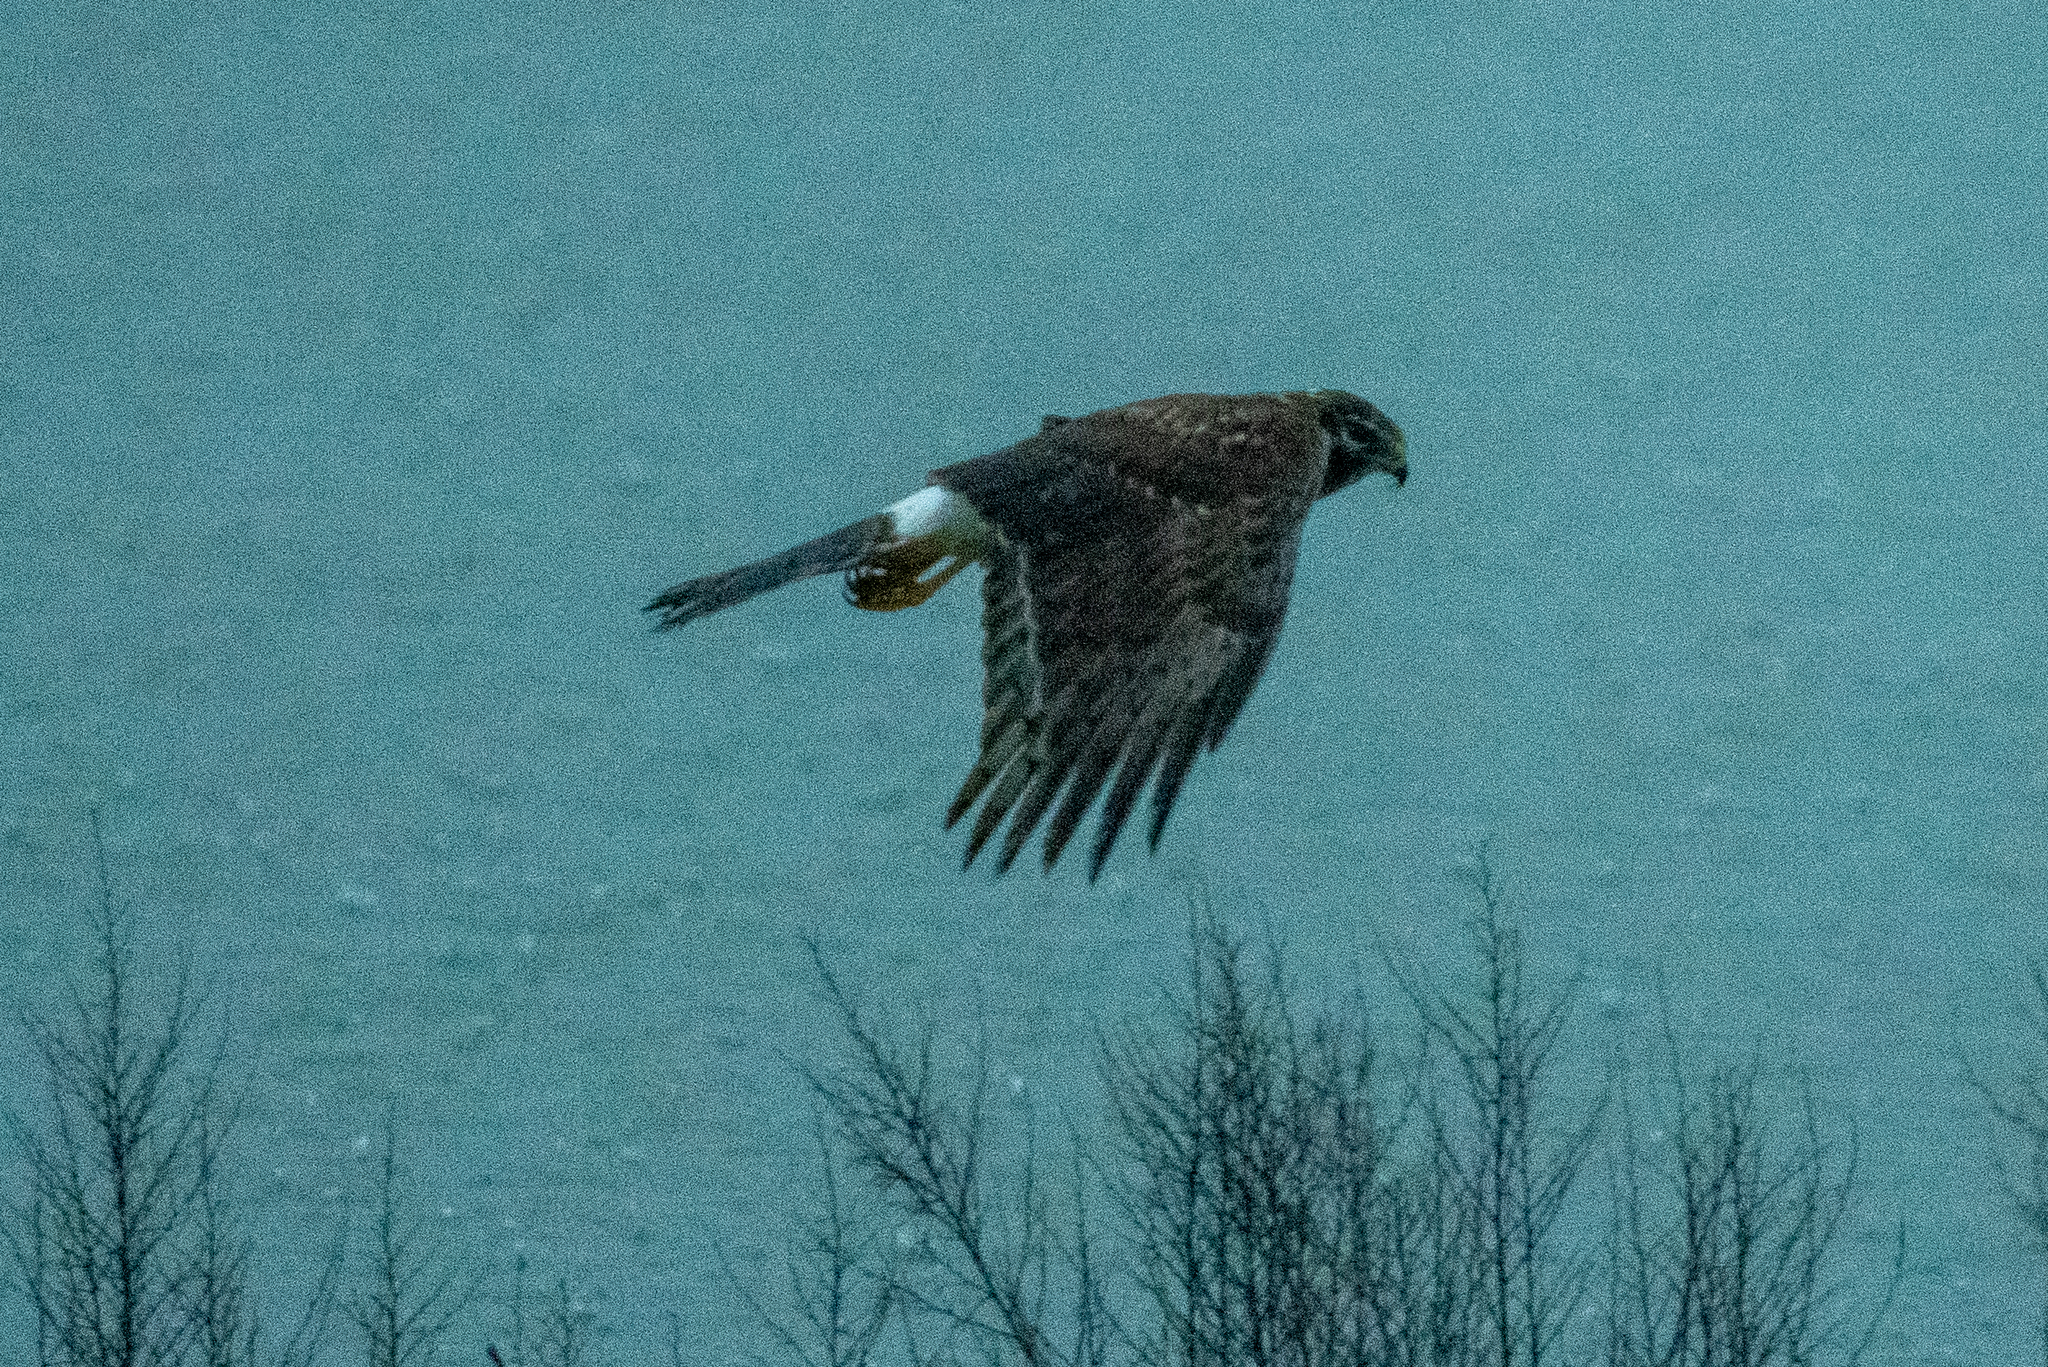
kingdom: Animalia
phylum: Chordata
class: Aves
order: Accipitriformes
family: Accipitridae
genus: Circus
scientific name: Circus cyaneus
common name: Hen harrier
